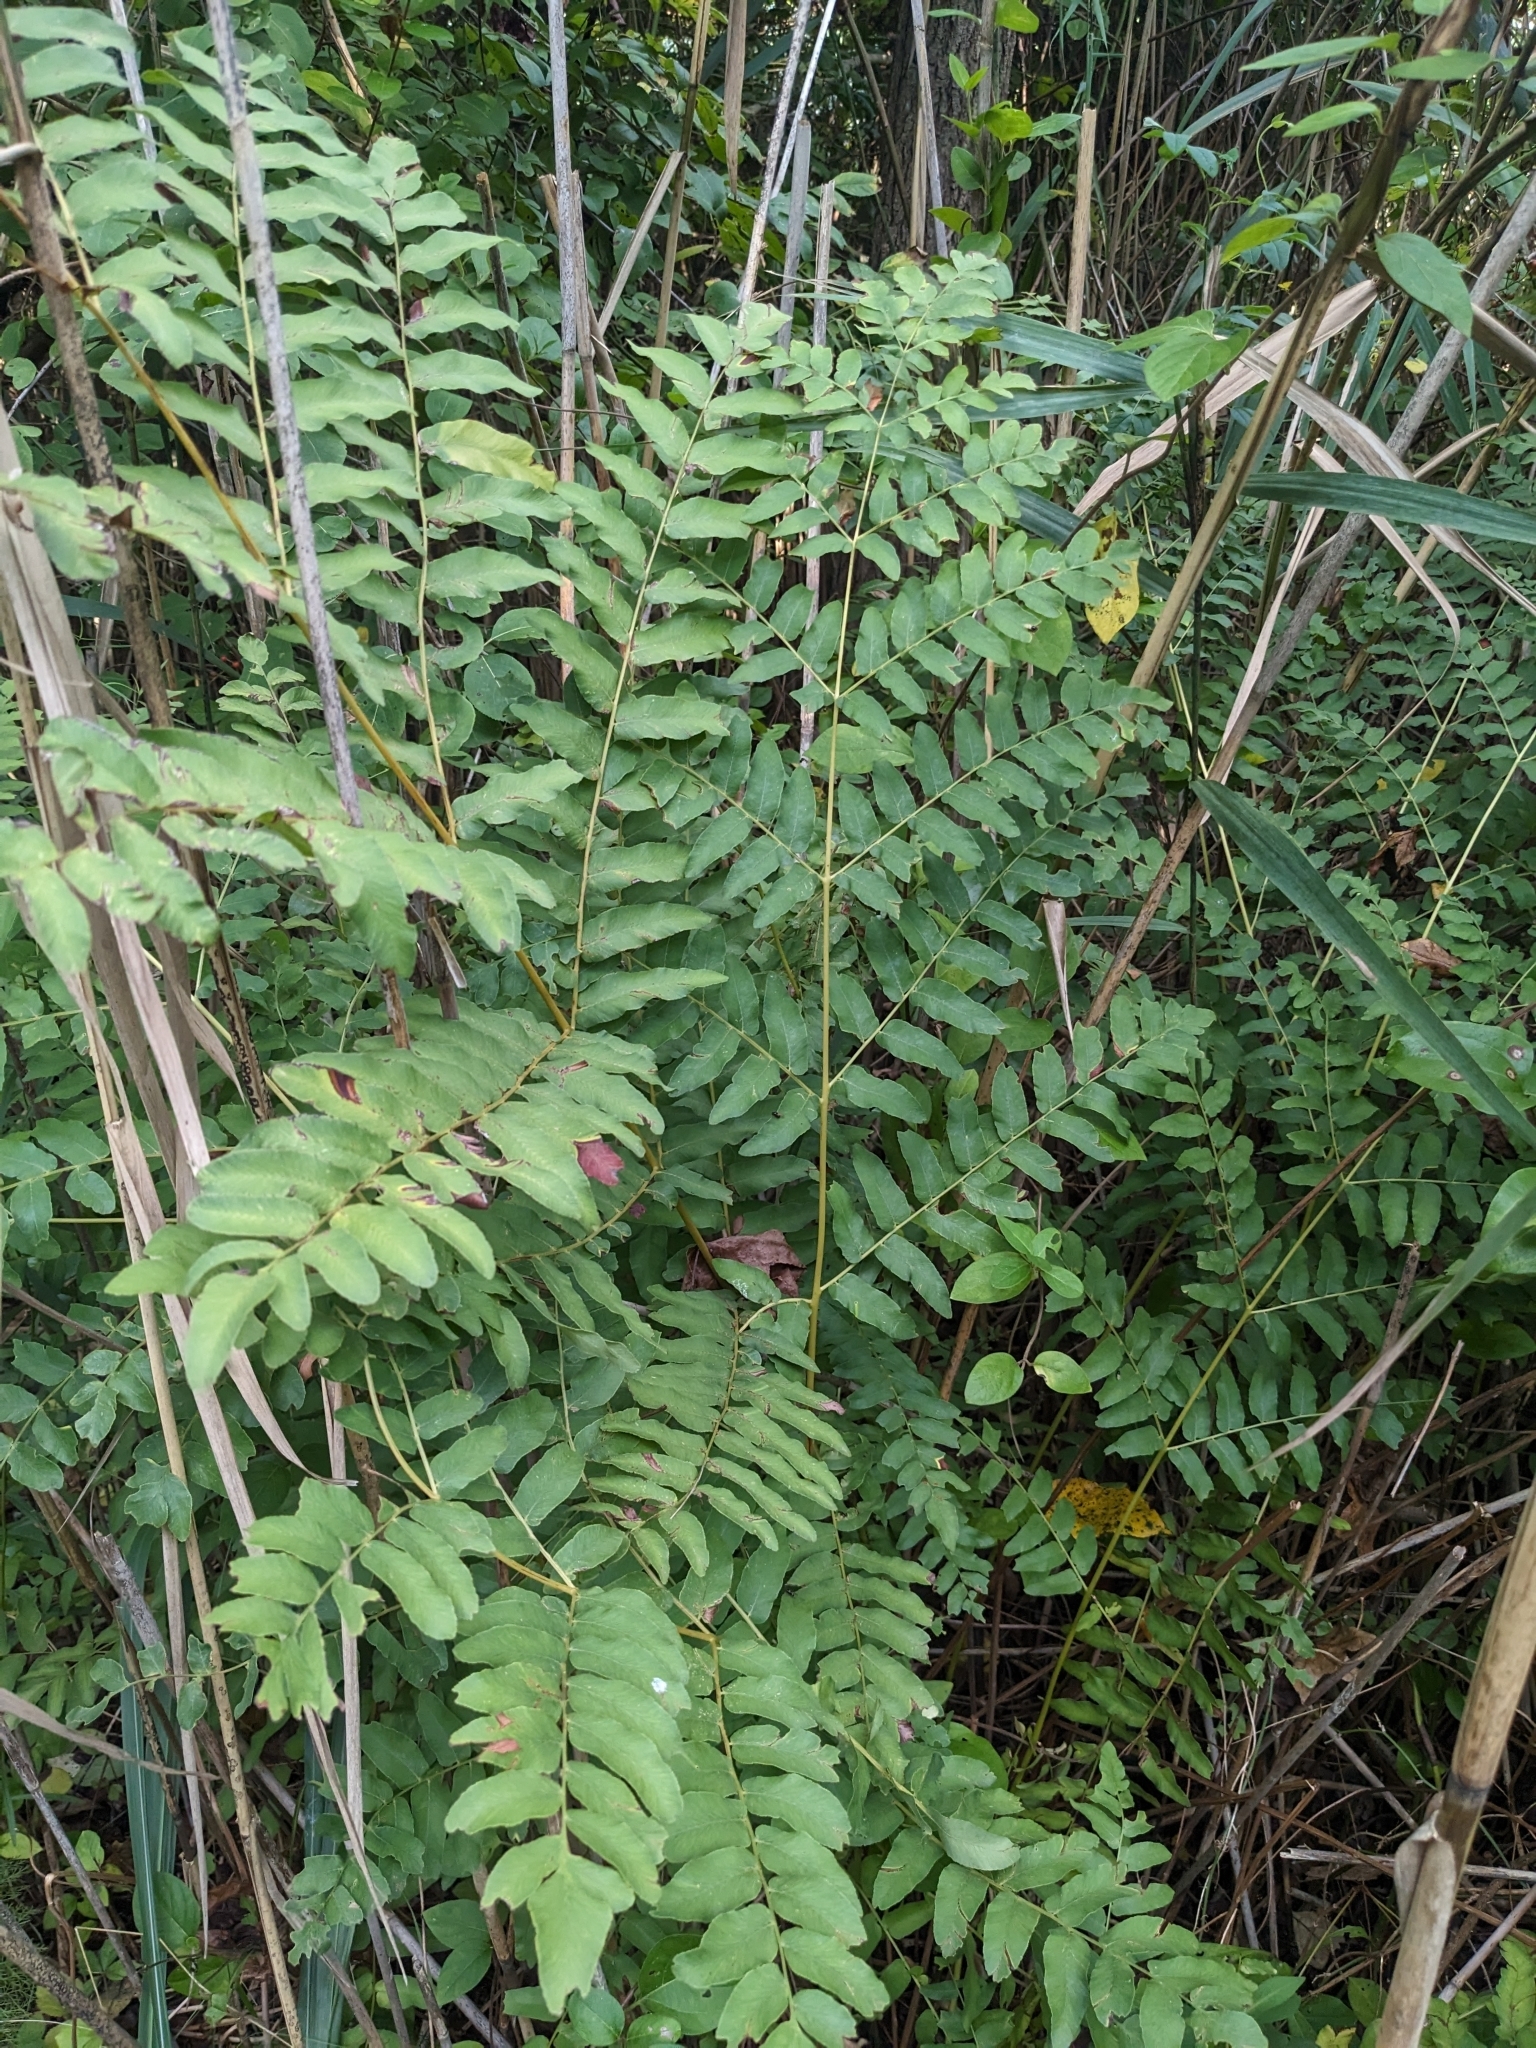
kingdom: Plantae
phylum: Tracheophyta
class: Polypodiopsida
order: Osmundales
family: Osmundaceae
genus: Osmunda
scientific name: Osmunda spectabilis
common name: American royal fern
